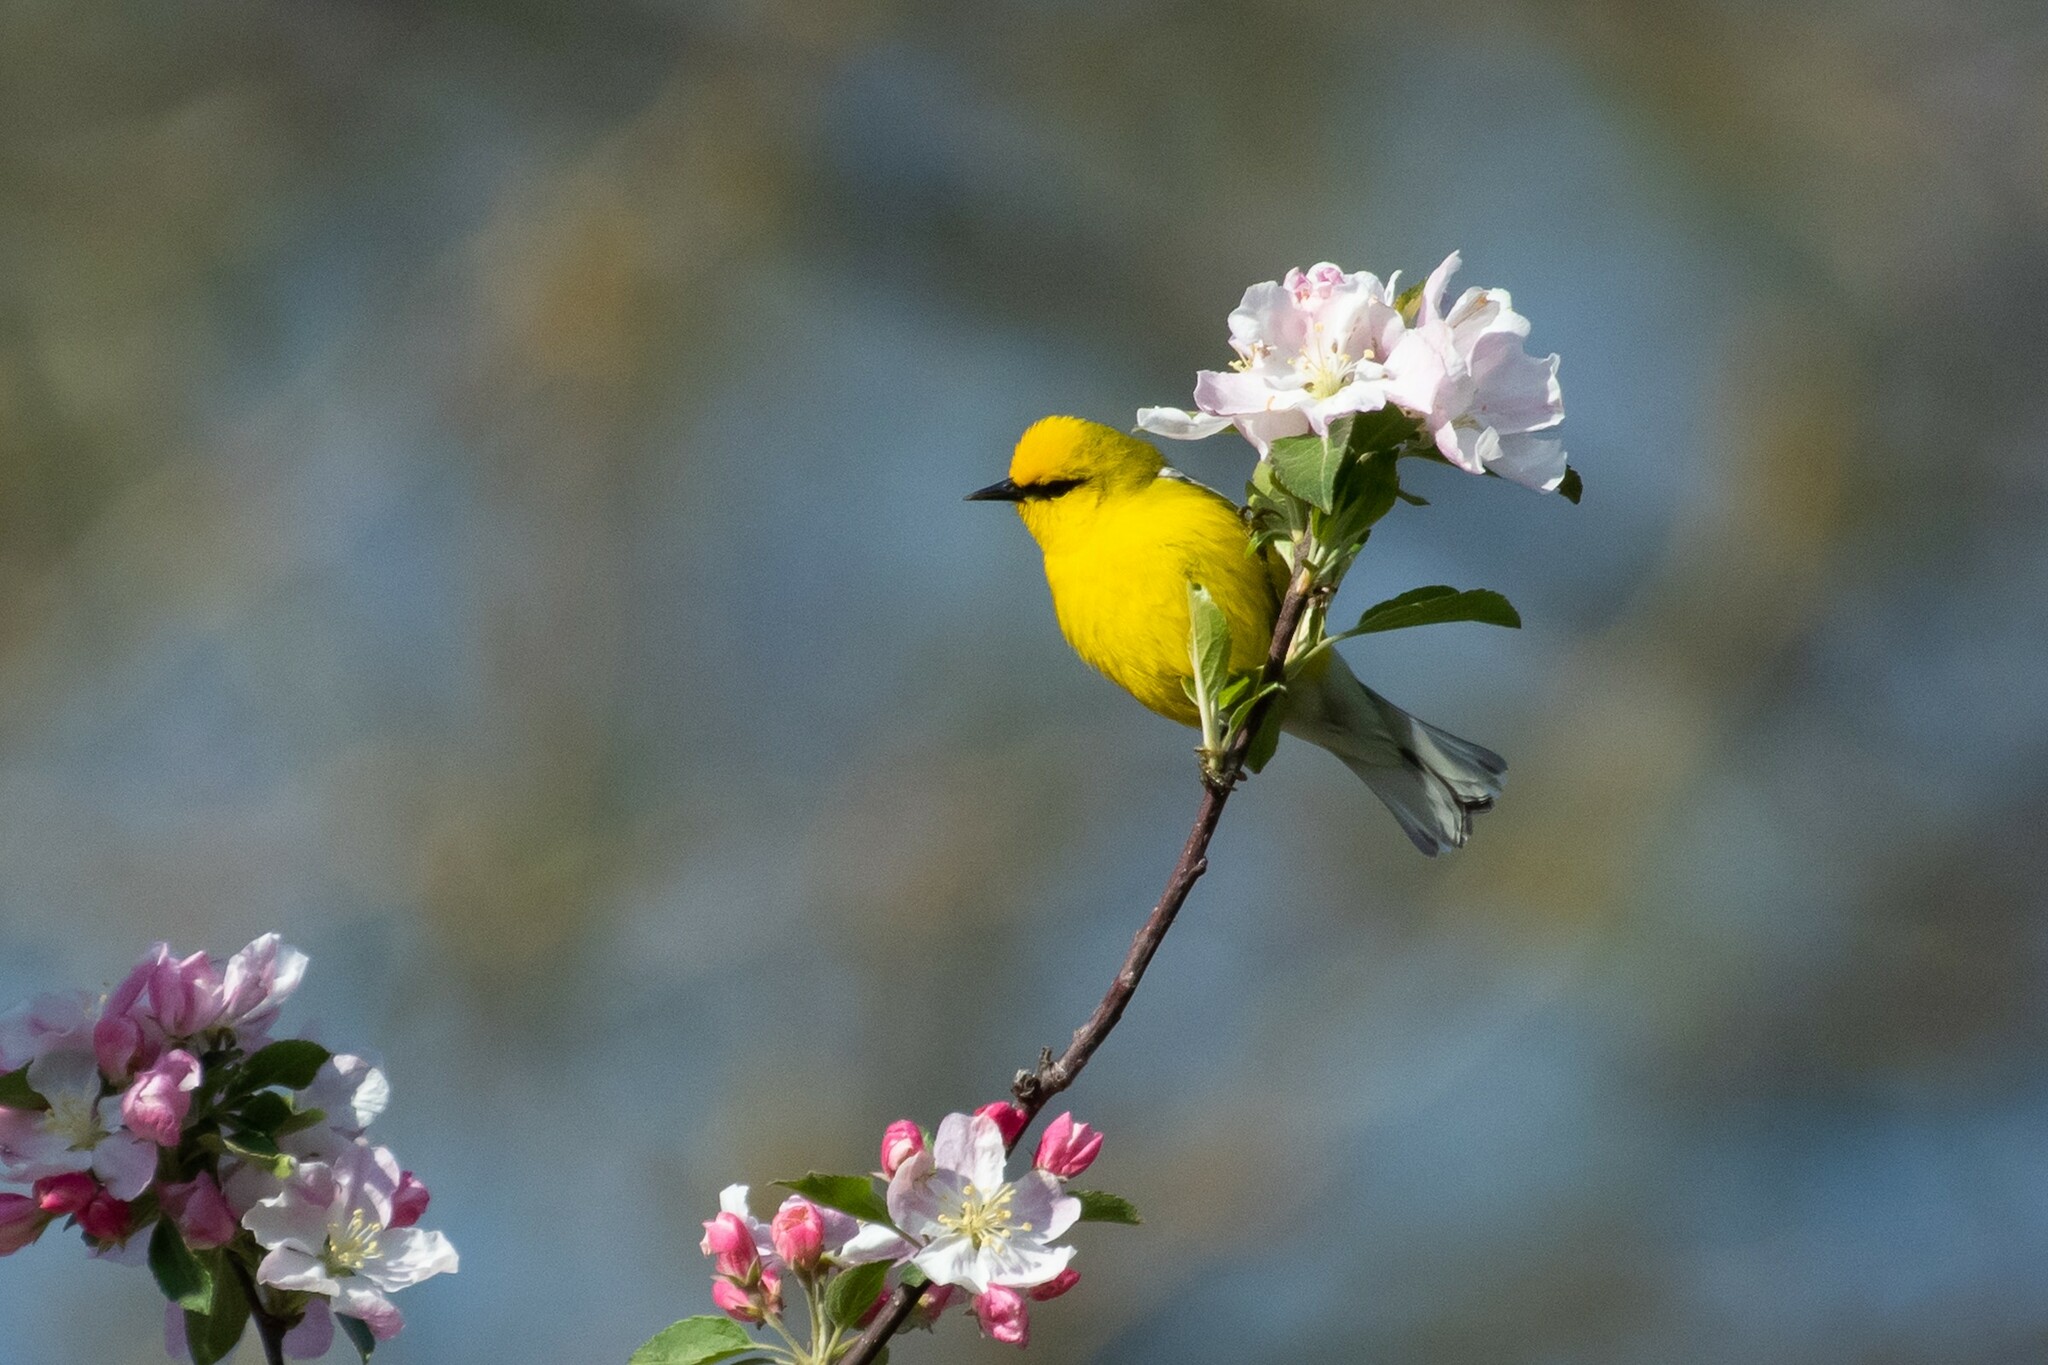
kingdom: Animalia
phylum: Chordata
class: Aves
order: Passeriformes
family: Parulidae
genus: Vermivora
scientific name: Vermivora cyanoptera
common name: Blue-winged warbler
